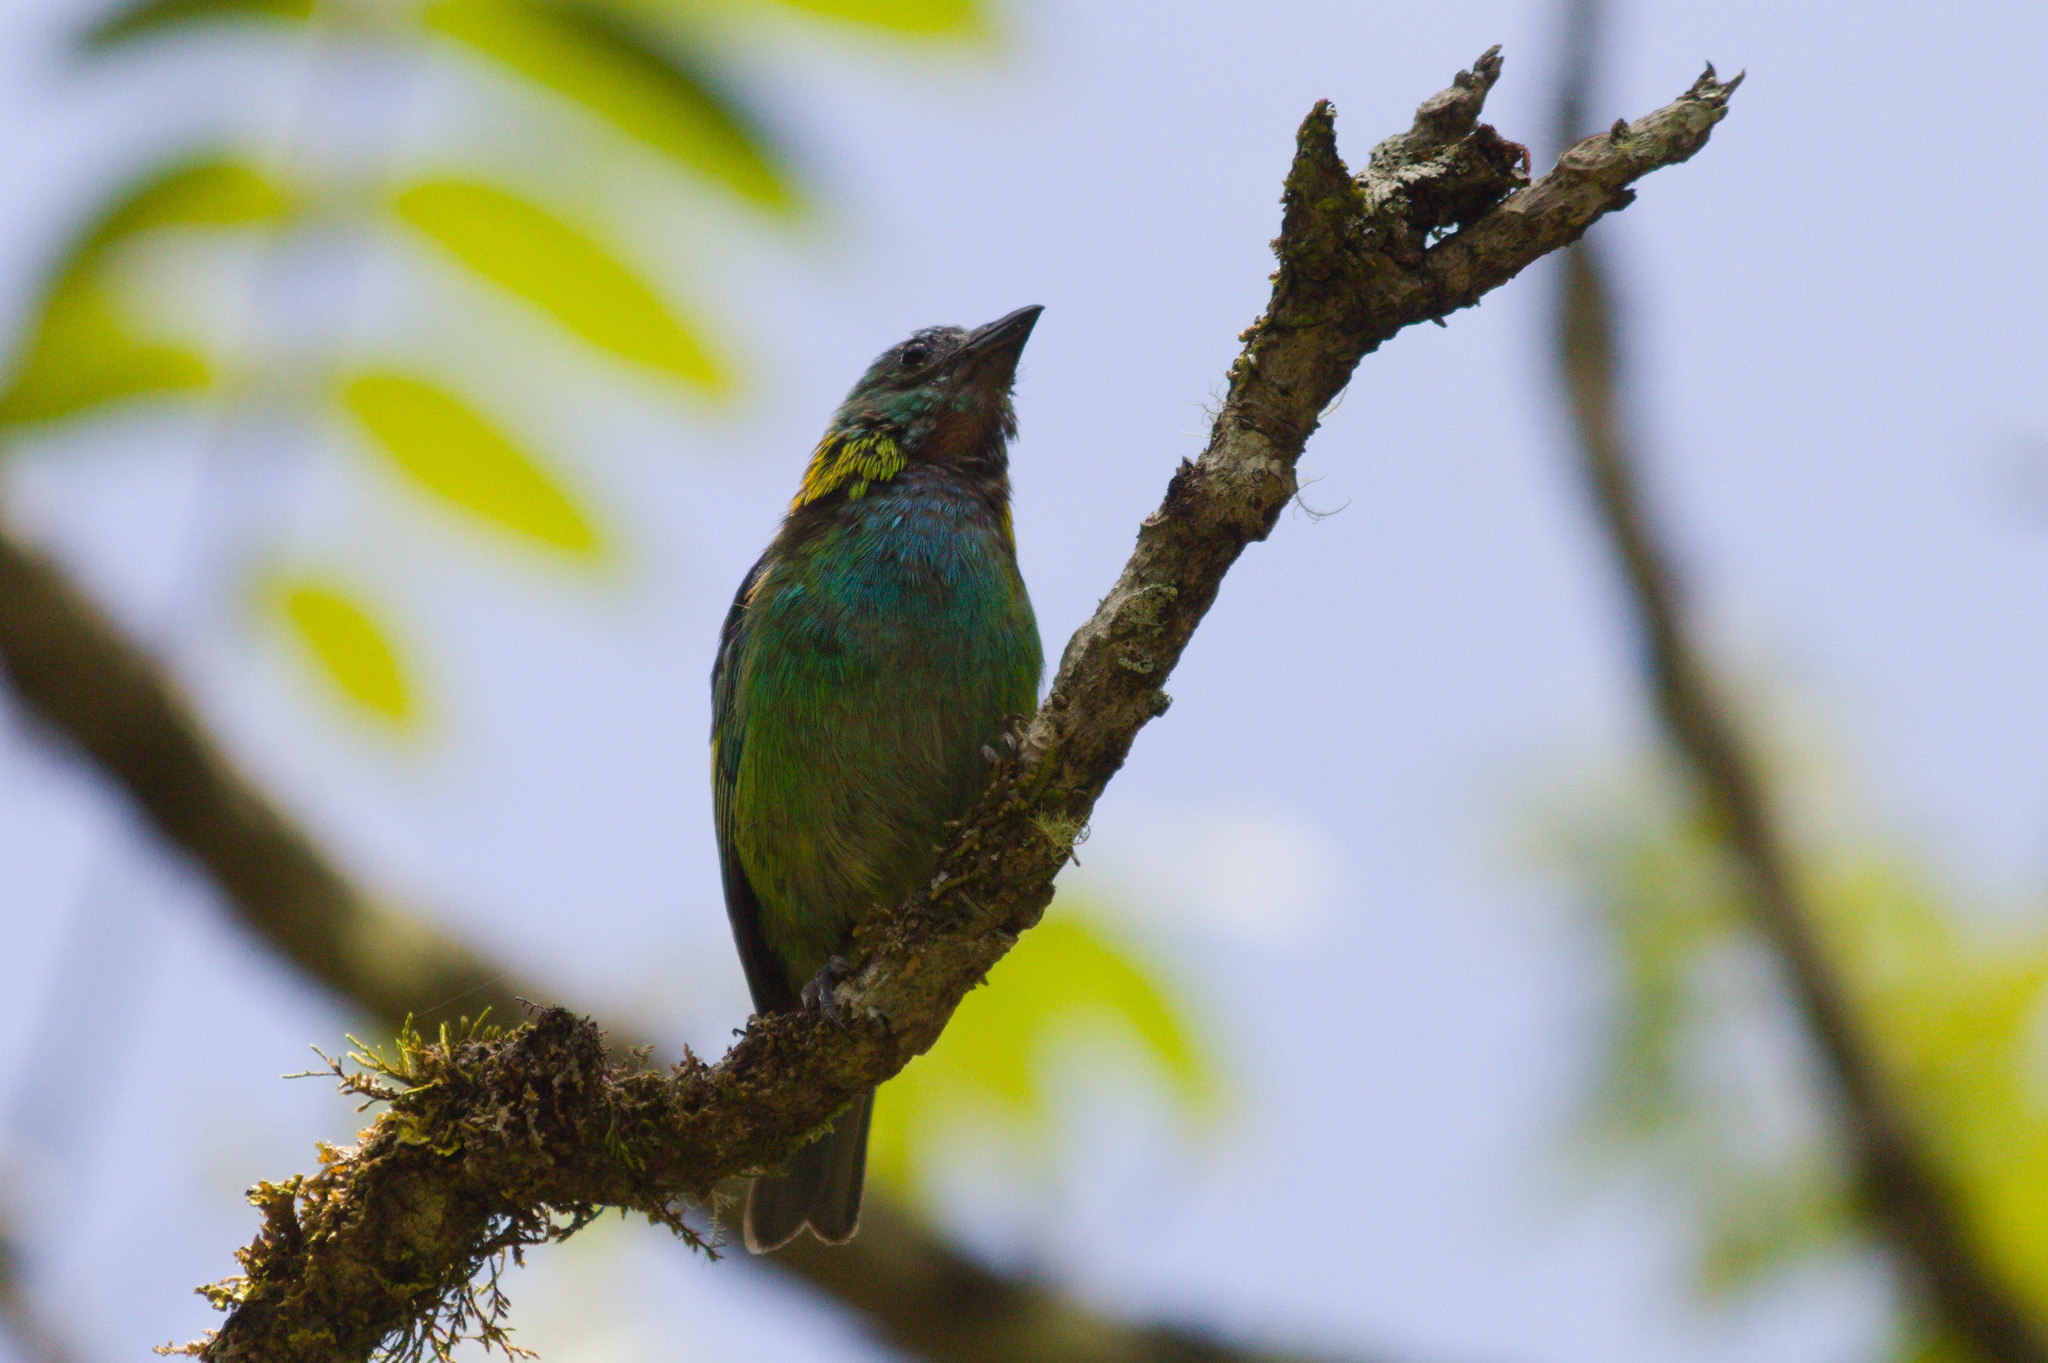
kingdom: Animalia
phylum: Chordata
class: Aves
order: Passeriformes
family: Thraupidae
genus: Tangara
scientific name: Tangara seledon
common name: Green-headed tanager
